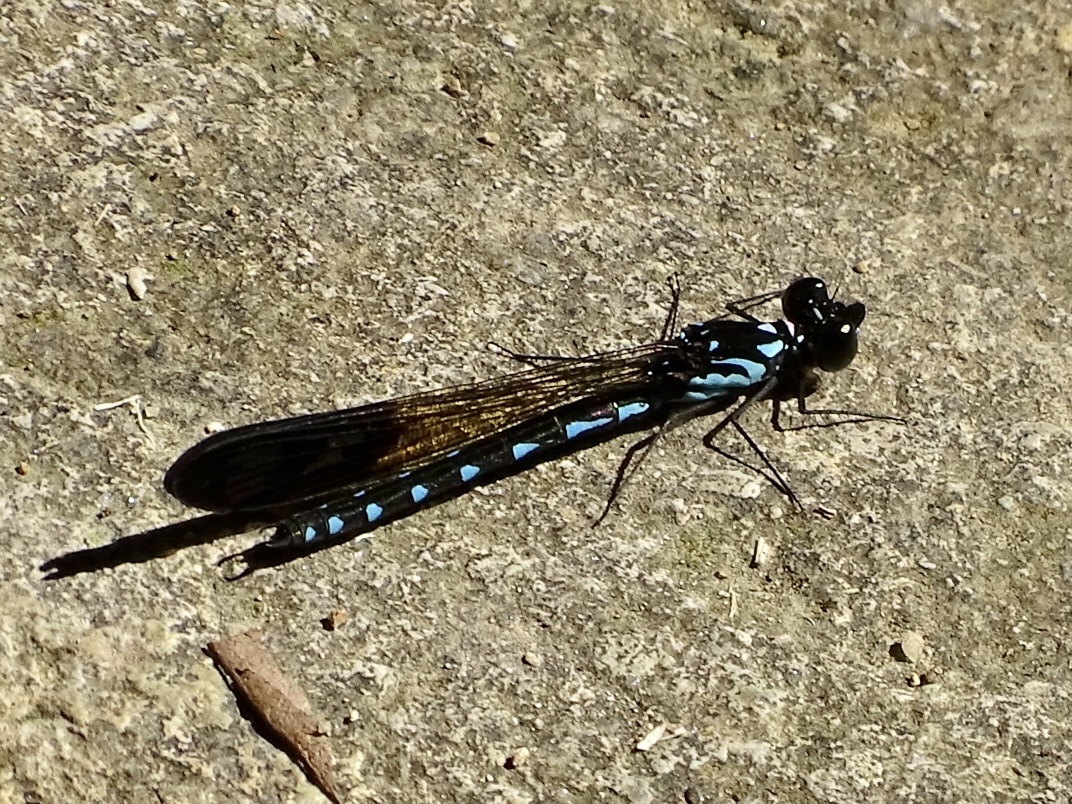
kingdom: Animalia
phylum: Arthropoda
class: Insecta
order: Odonata
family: Chlorocyphidae
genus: Heliocypha
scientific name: Heliocypha perforata
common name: Common blue jewel
